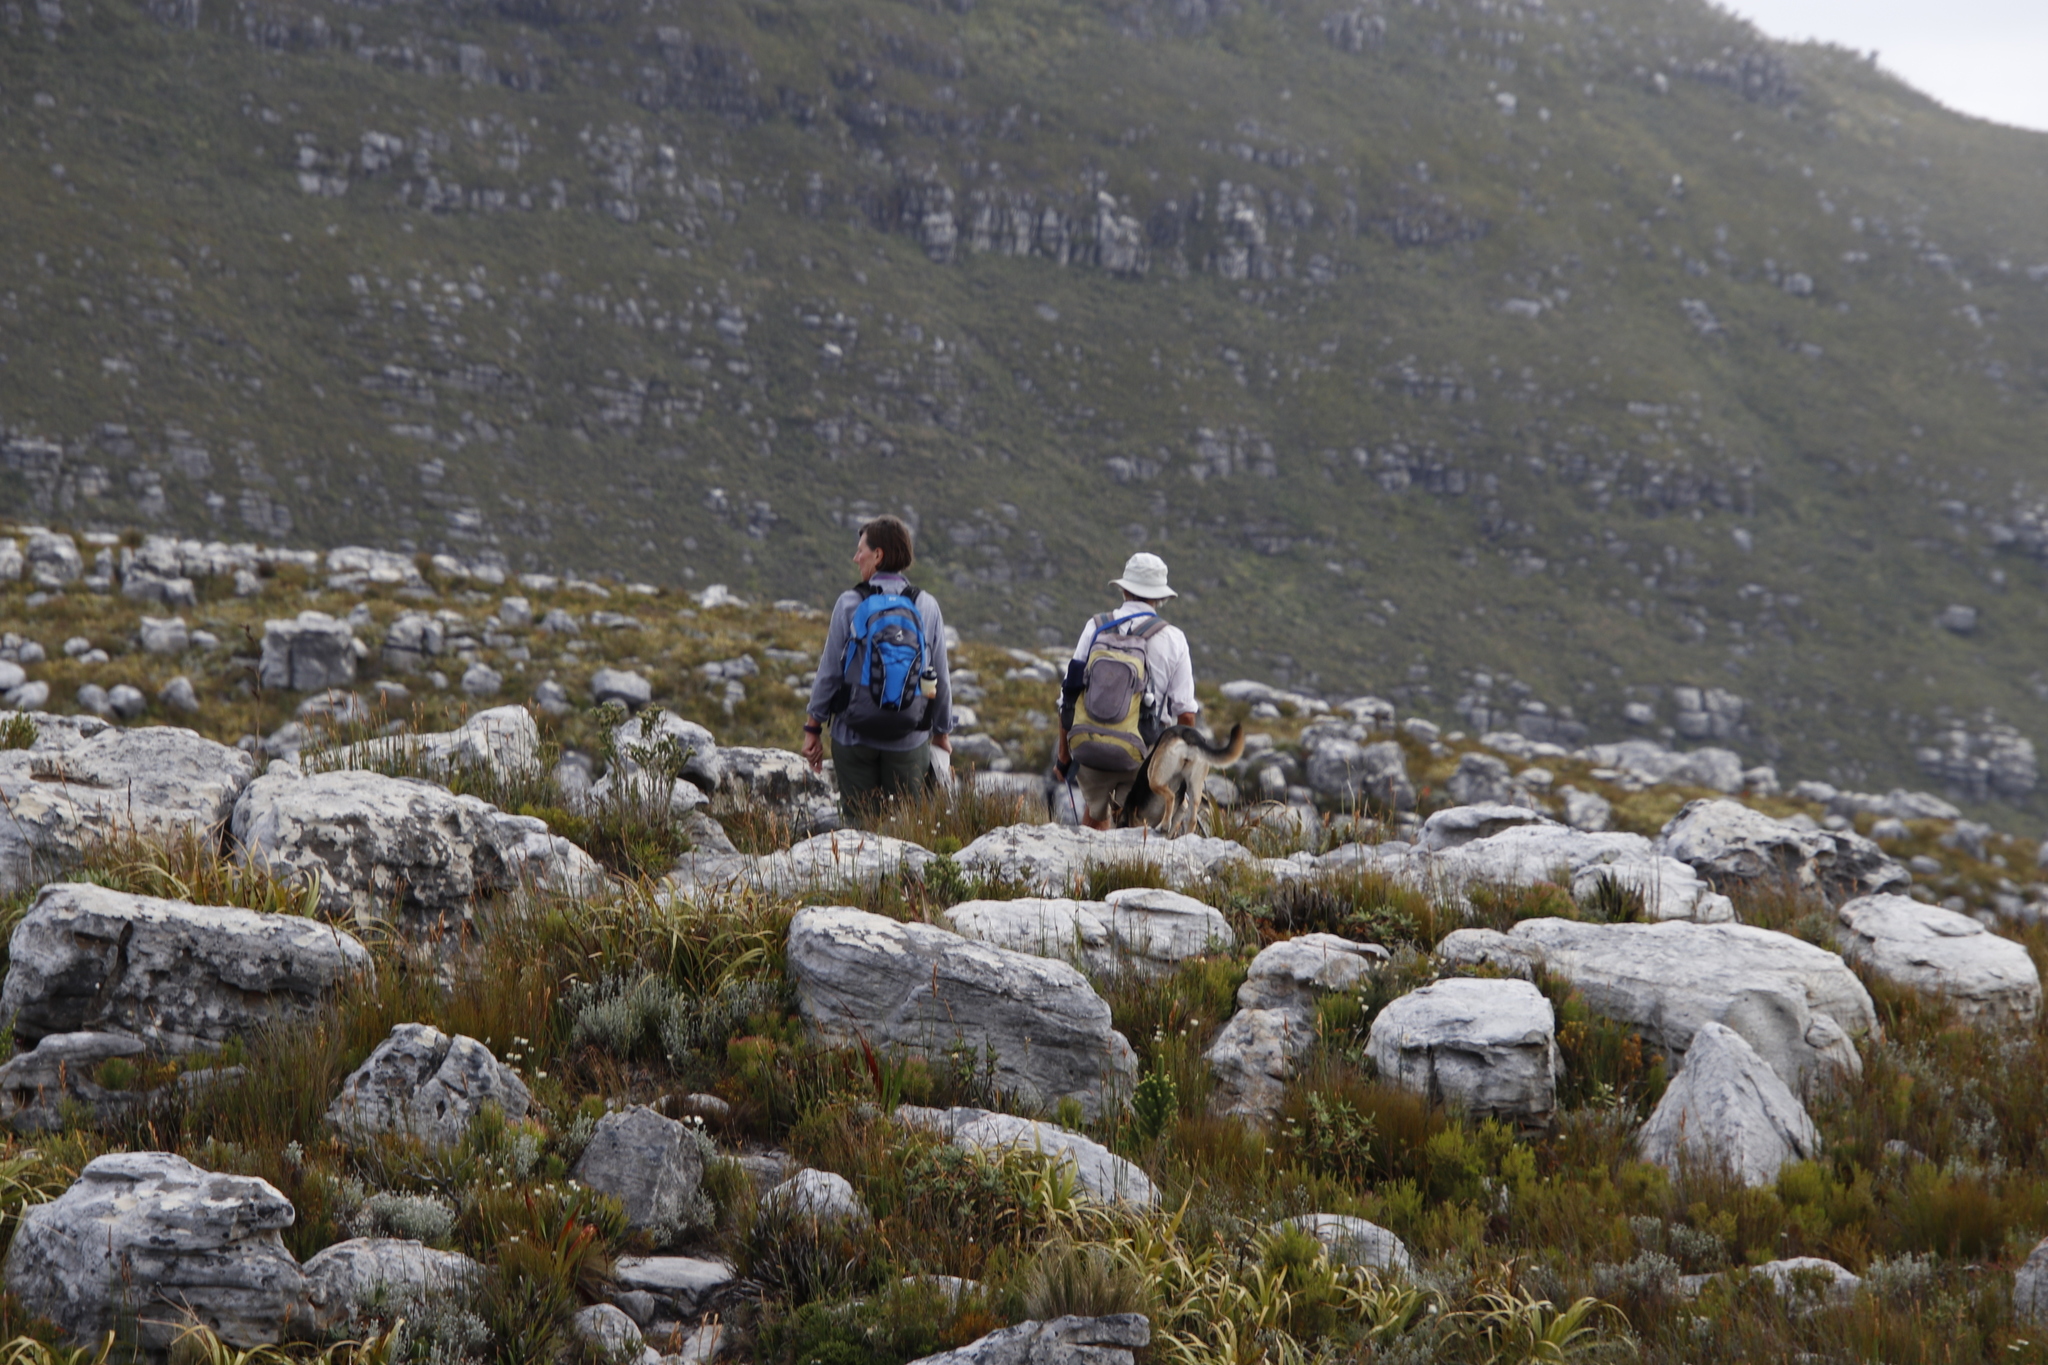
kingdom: Plantae
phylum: Tracheophyta
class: Liliopsida
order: Poales
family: Cyperaceae
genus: Tetraria
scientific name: Tetraria thermalis
